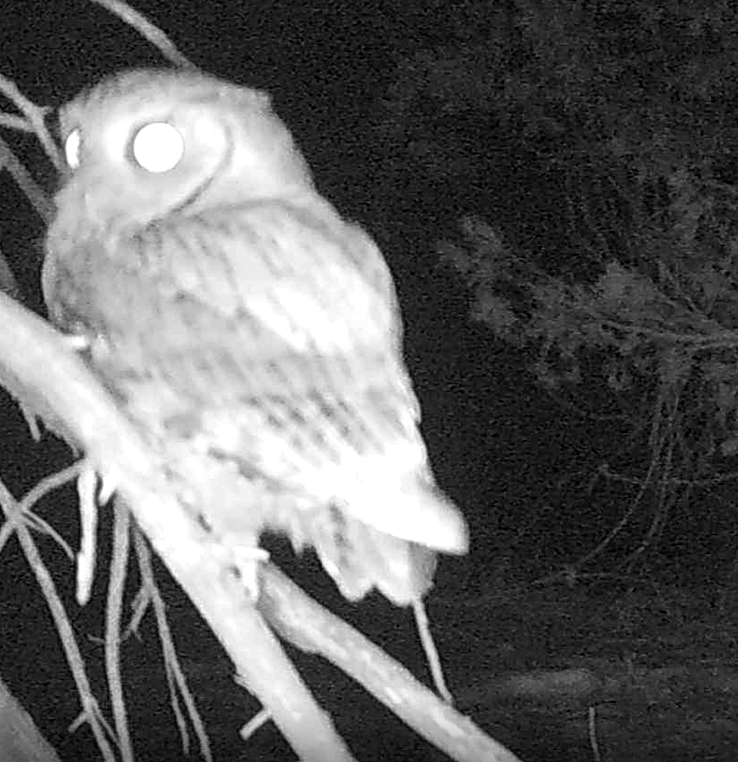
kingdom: Animalia
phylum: Chordata
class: Aves
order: Strigiformes
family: Strigidae
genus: Megascops
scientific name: Megascops asio
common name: Eastern screech-owl
